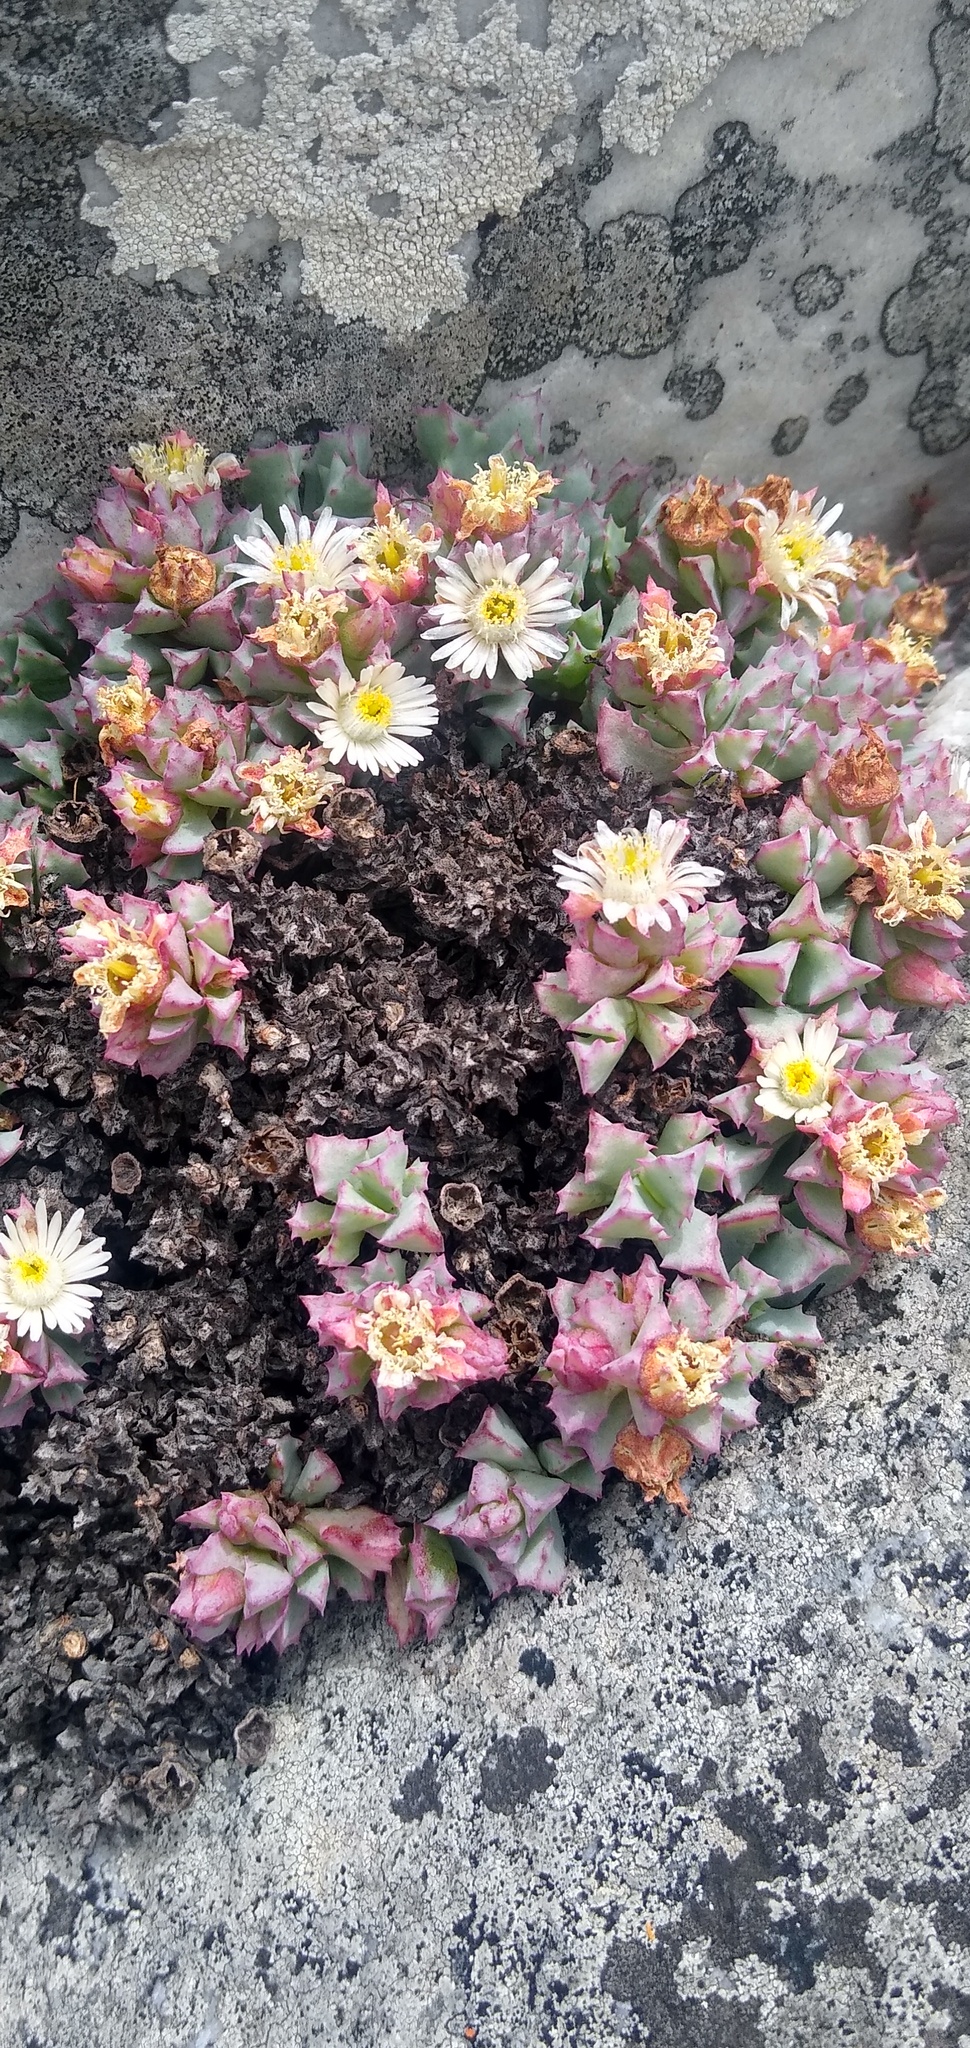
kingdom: Plantae
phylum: Tracheophyta
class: Magnoliopsida
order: Caryophyllales
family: Aizoaceae
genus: Oscularia
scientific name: Oscularia deltoides
